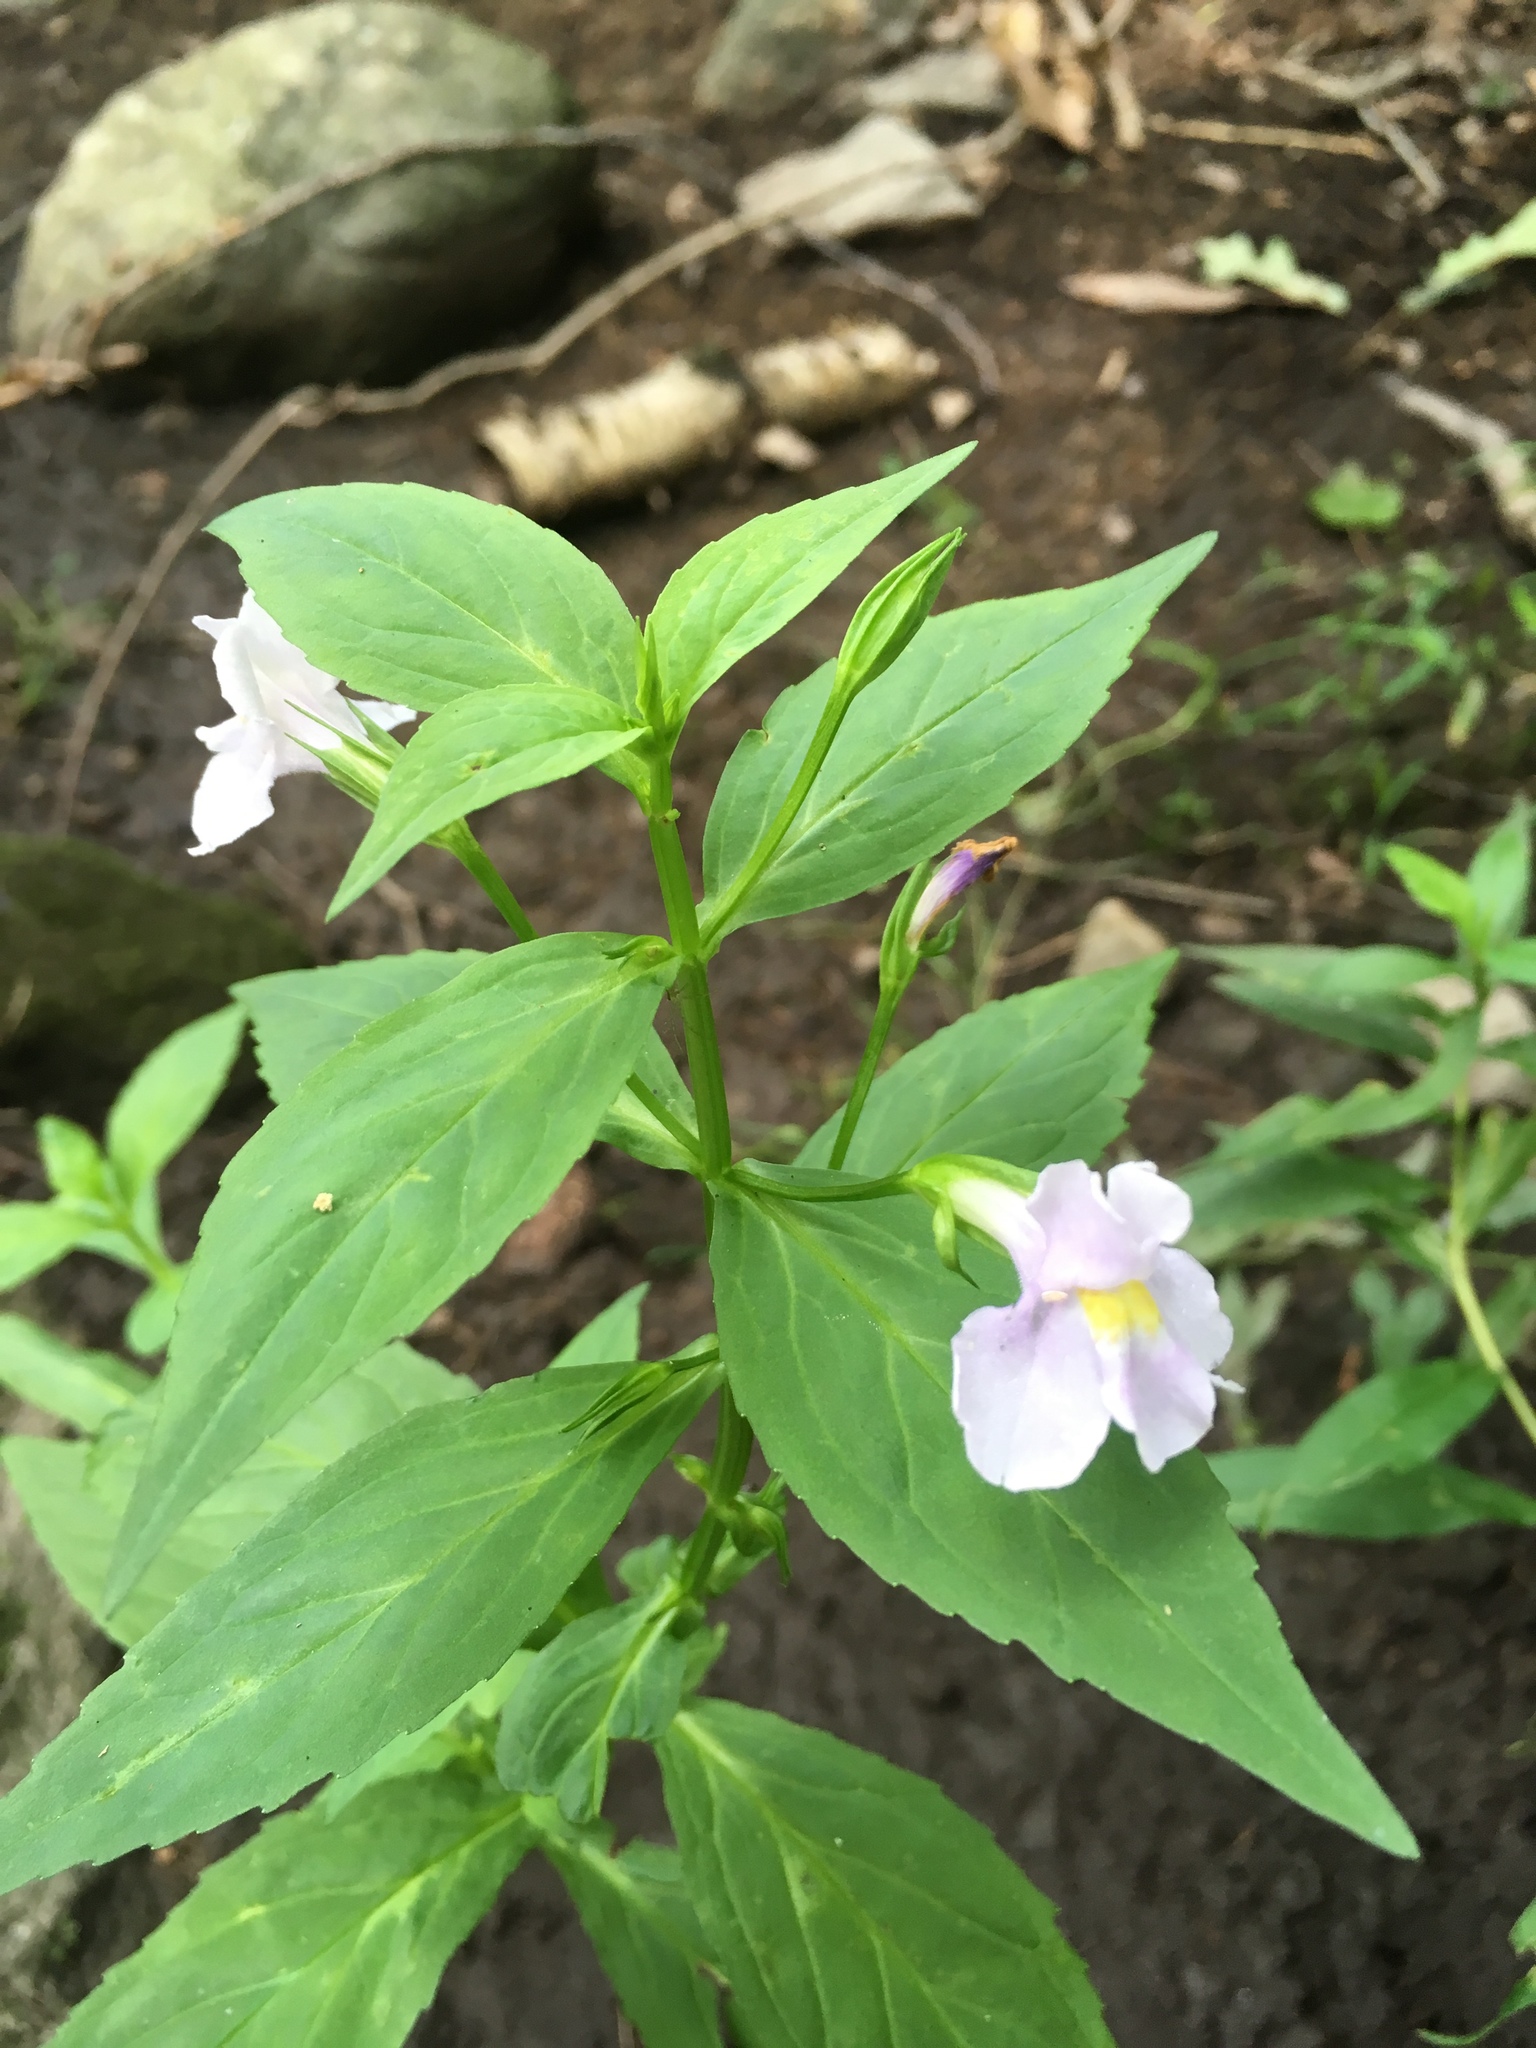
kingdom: Plantae
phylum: Tracheophyta
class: Magnoliopsida
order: Lamiales
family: Phrymaceae
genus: Mimulus
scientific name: Mimulus ringens
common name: Allegheny monkeyflower
